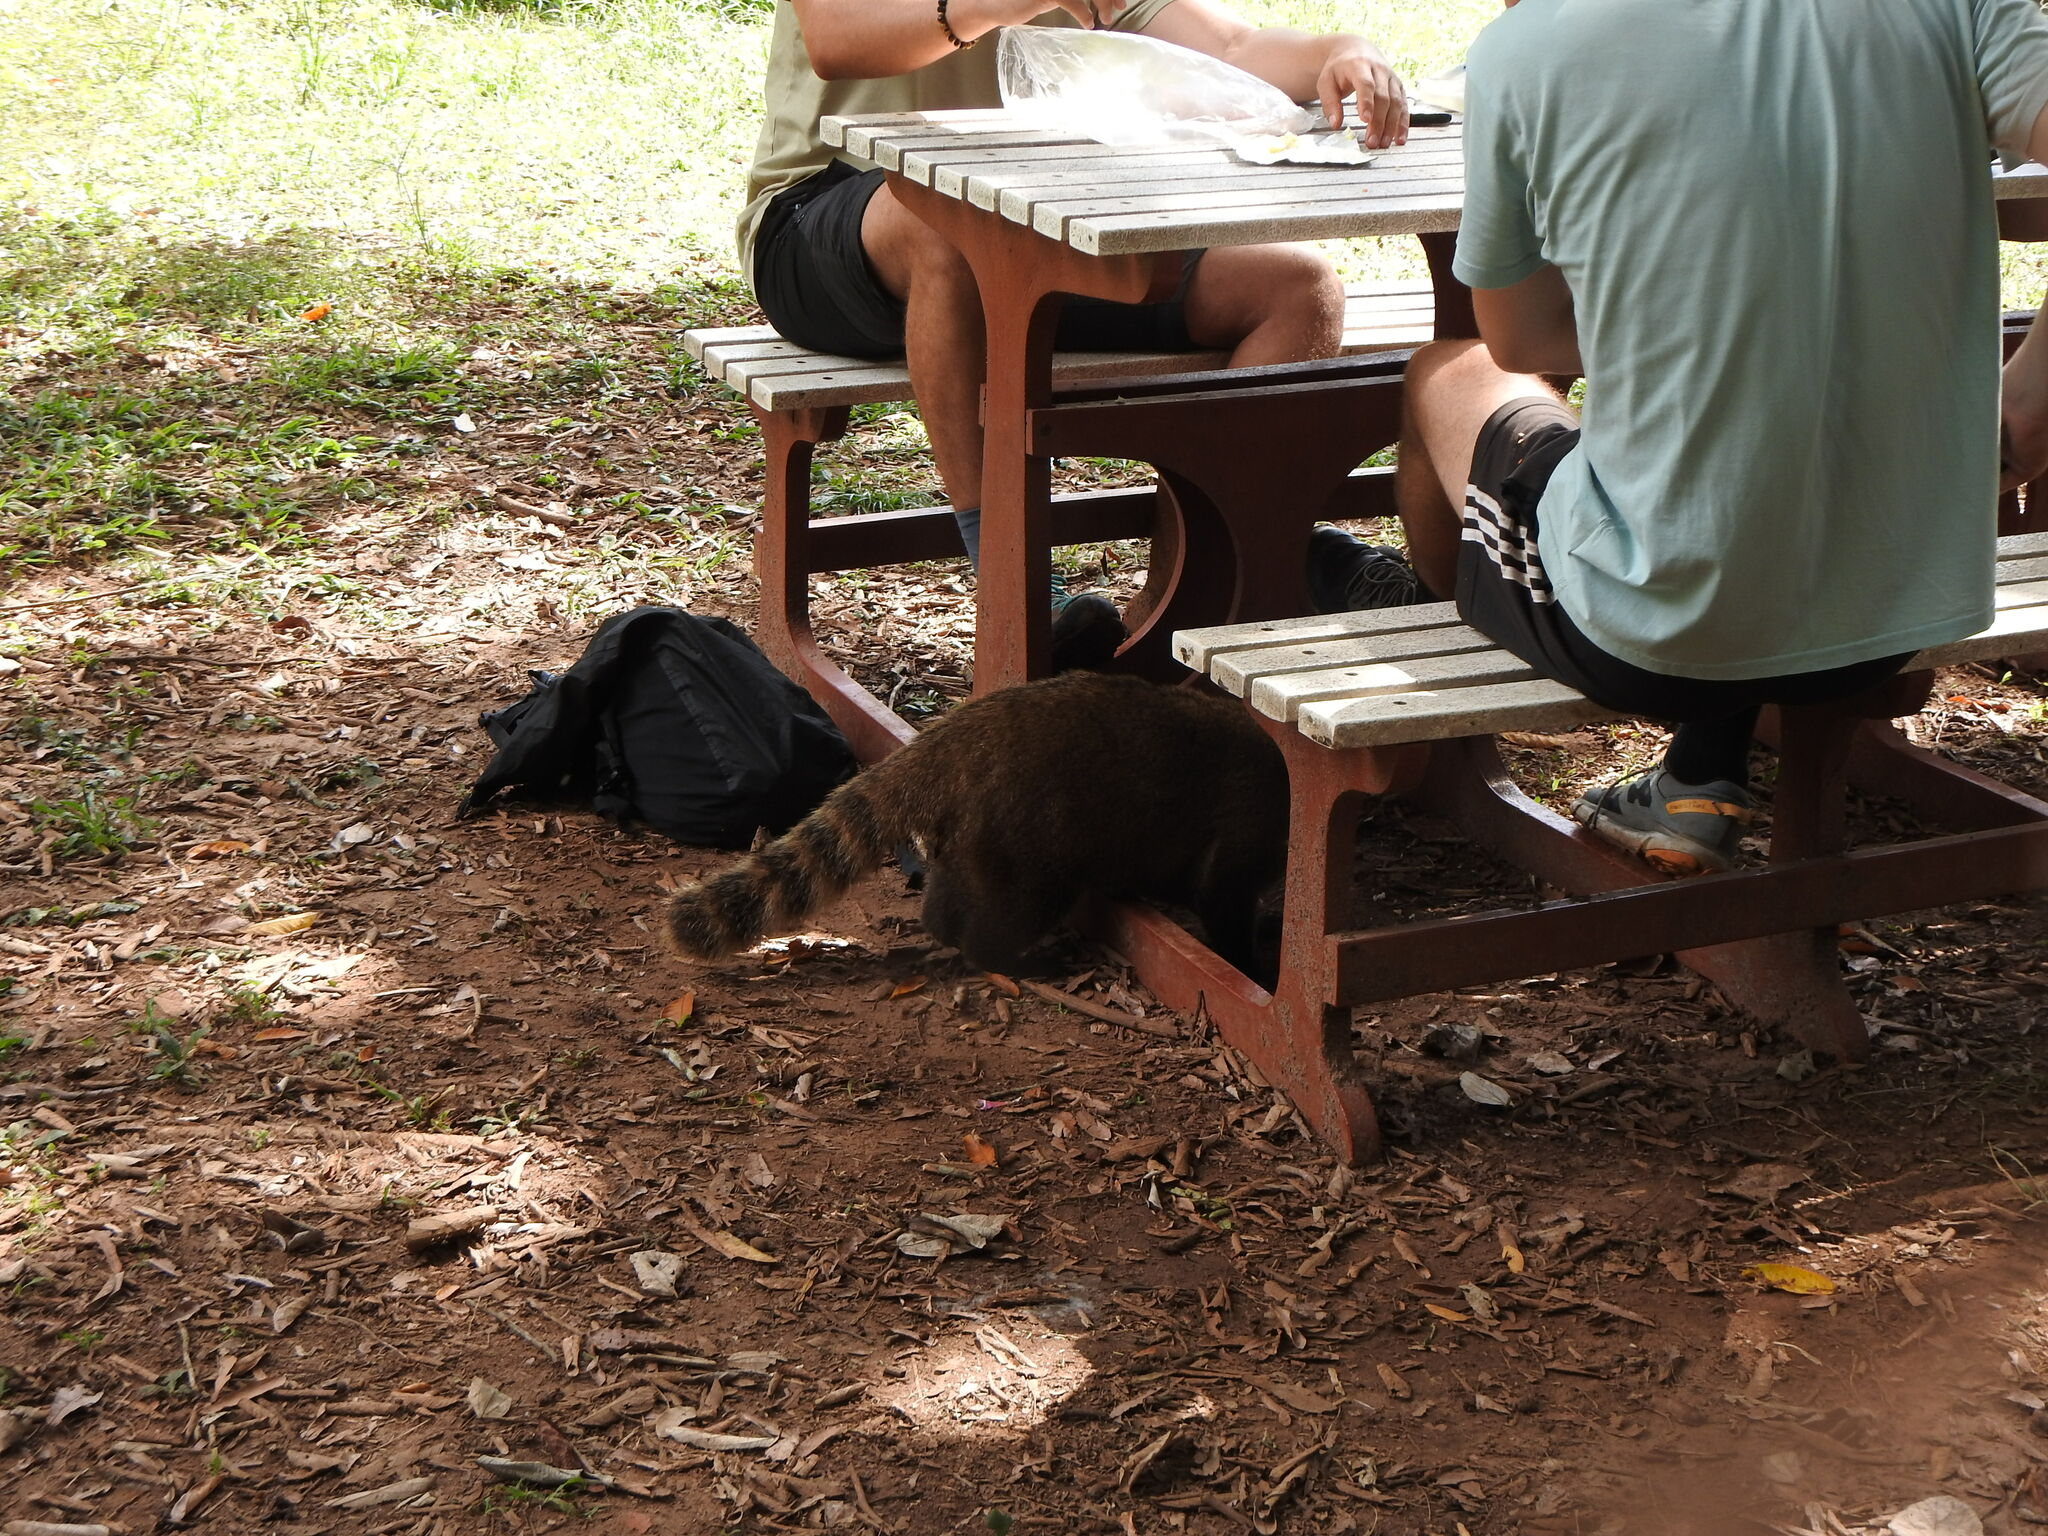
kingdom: Animalia
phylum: Chordata
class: Mammalia
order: Carnivora
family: Procyonidae
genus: Nasua
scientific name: Nasua nasua
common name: South american coati
